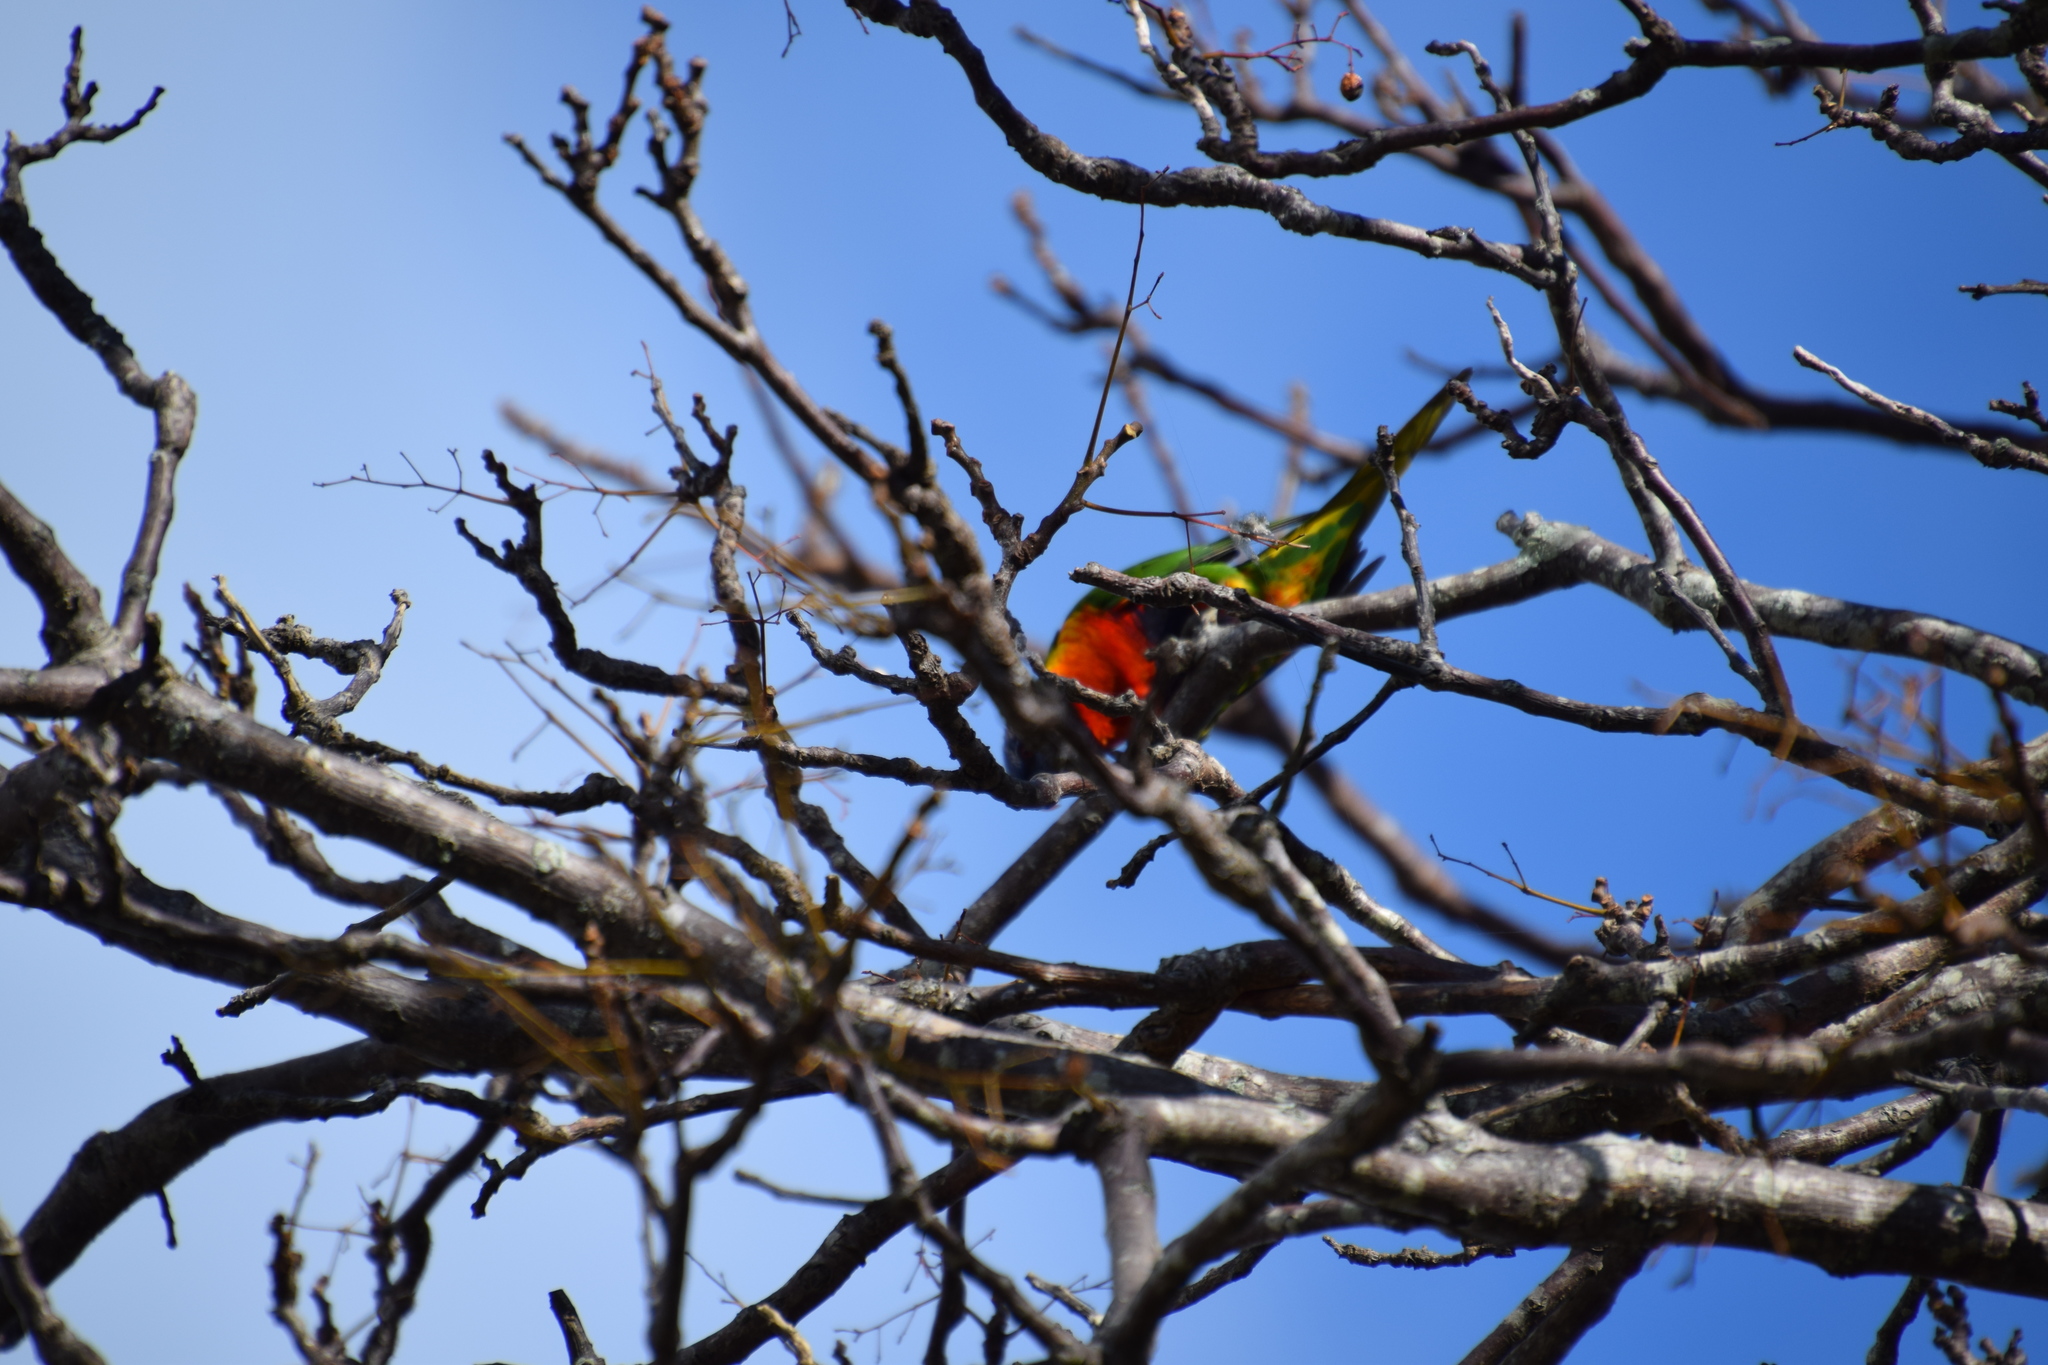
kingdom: Animalia
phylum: Chordata
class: Aves
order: Psittaciformes
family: Psittacidae
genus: Trichoglossus
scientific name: Trichoglossus haematodus
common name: Coconut lorikeet
